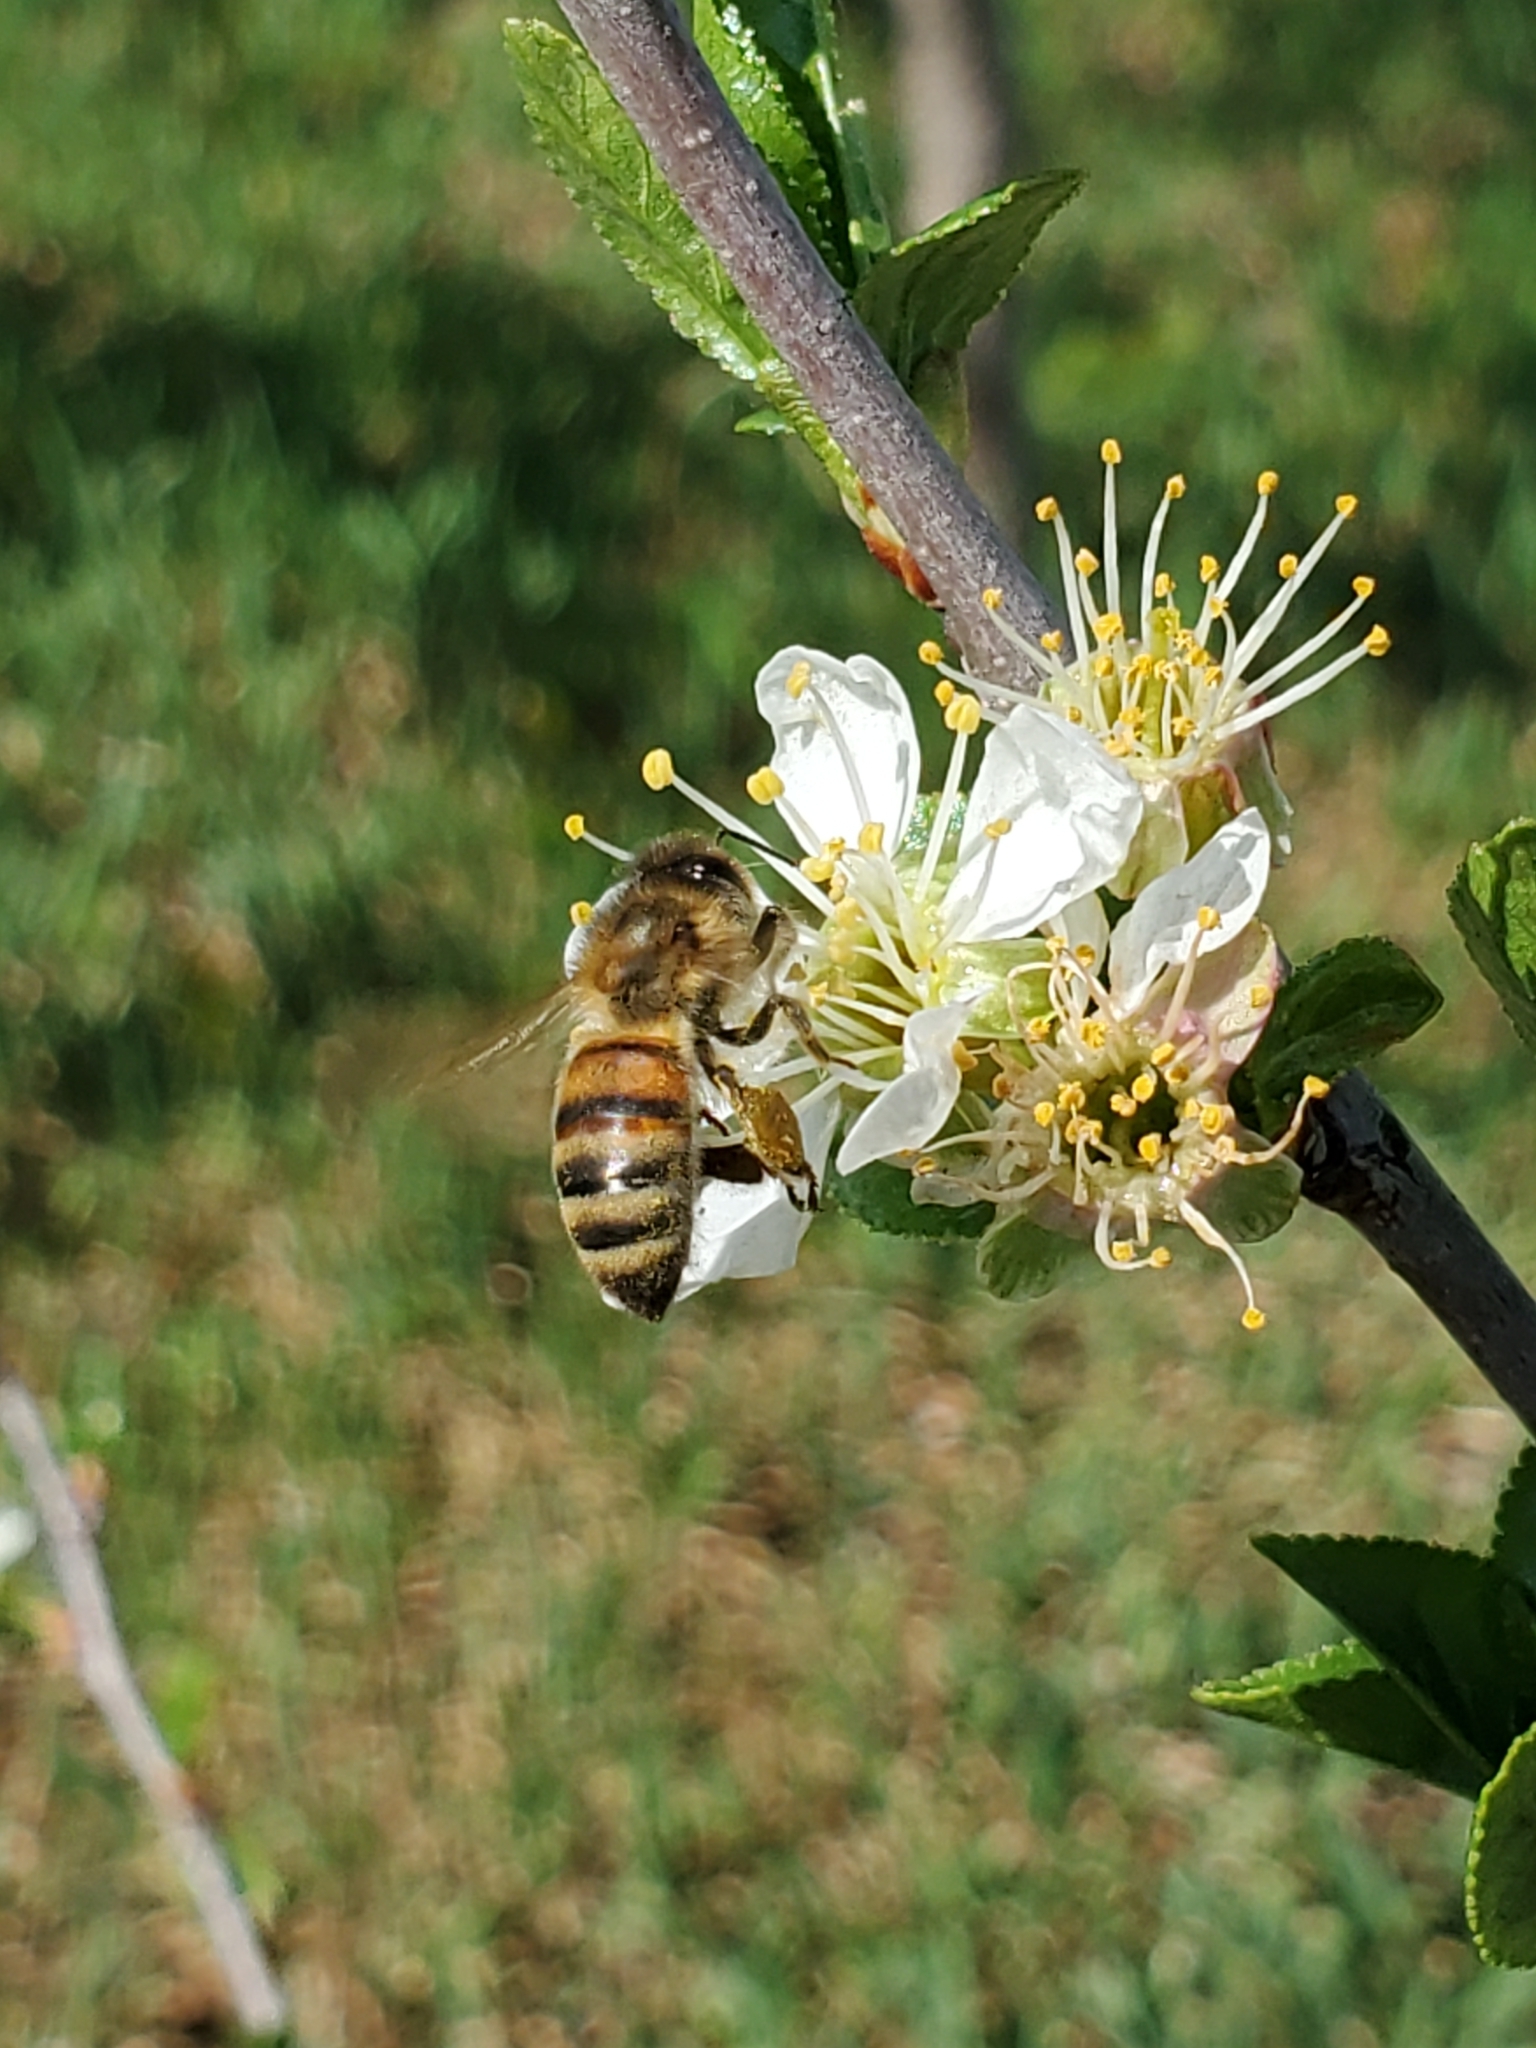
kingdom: Animalia
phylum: Arthropoda
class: Insecta
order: Hymenoptera
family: Apidae
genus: Apis
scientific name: Apis mellifera
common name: Honey bee
